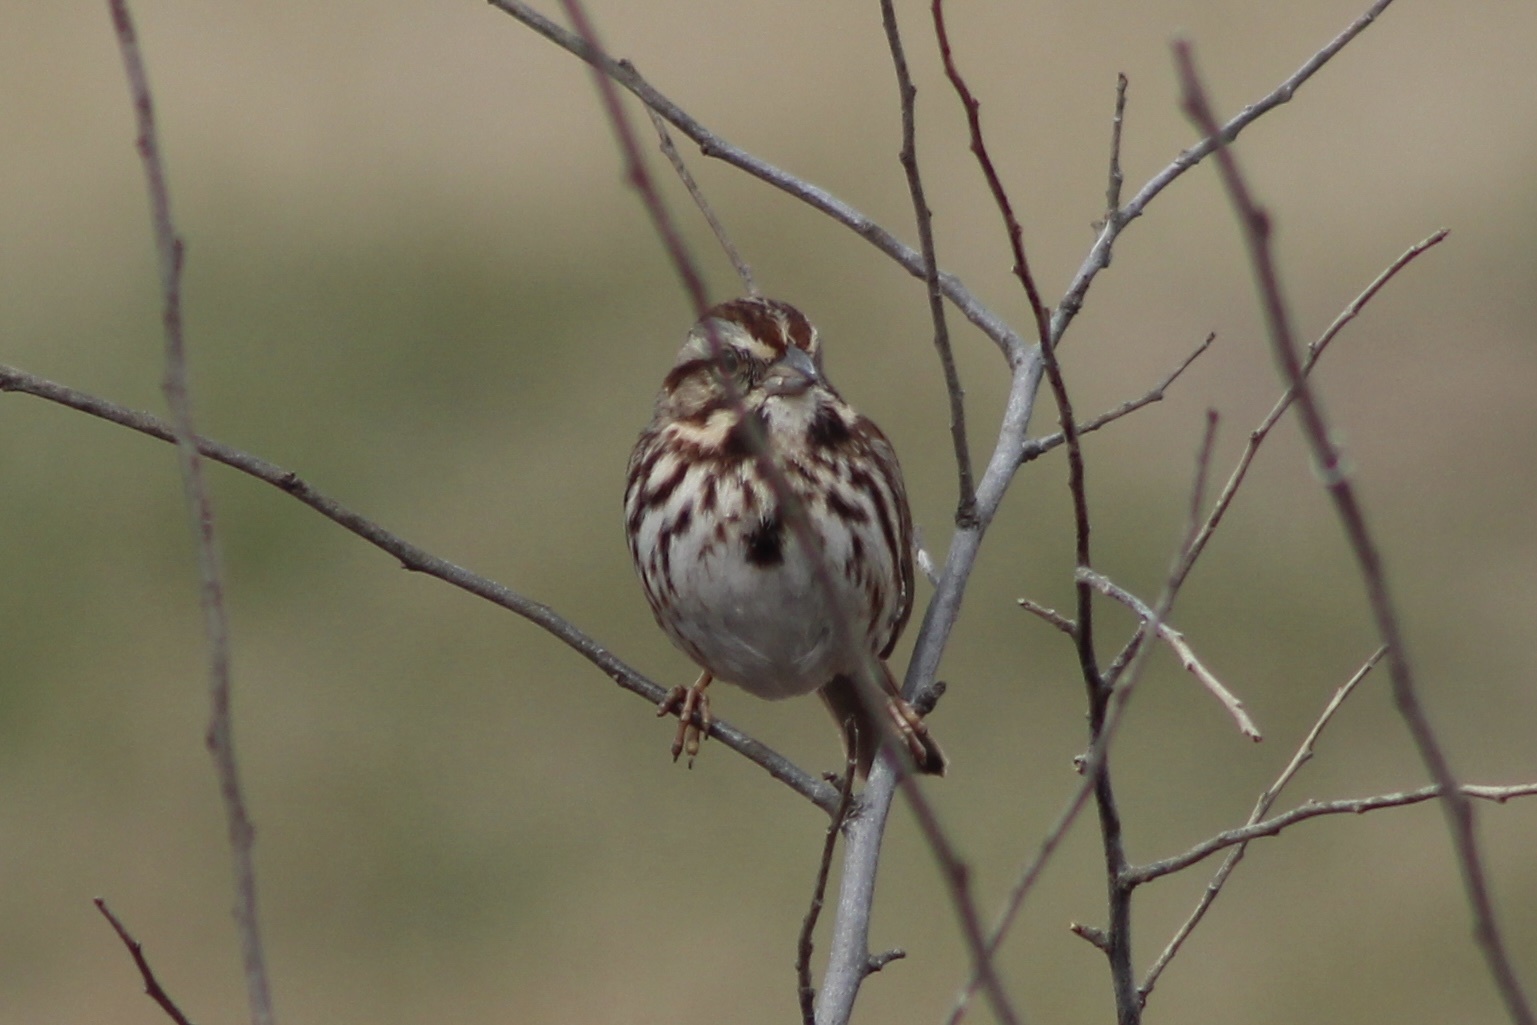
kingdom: Animalia
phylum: Chordata
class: Aves
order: Passeriformes
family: Passerellidae
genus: Melospiza
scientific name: Melospiza melodia
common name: Song sparrow
